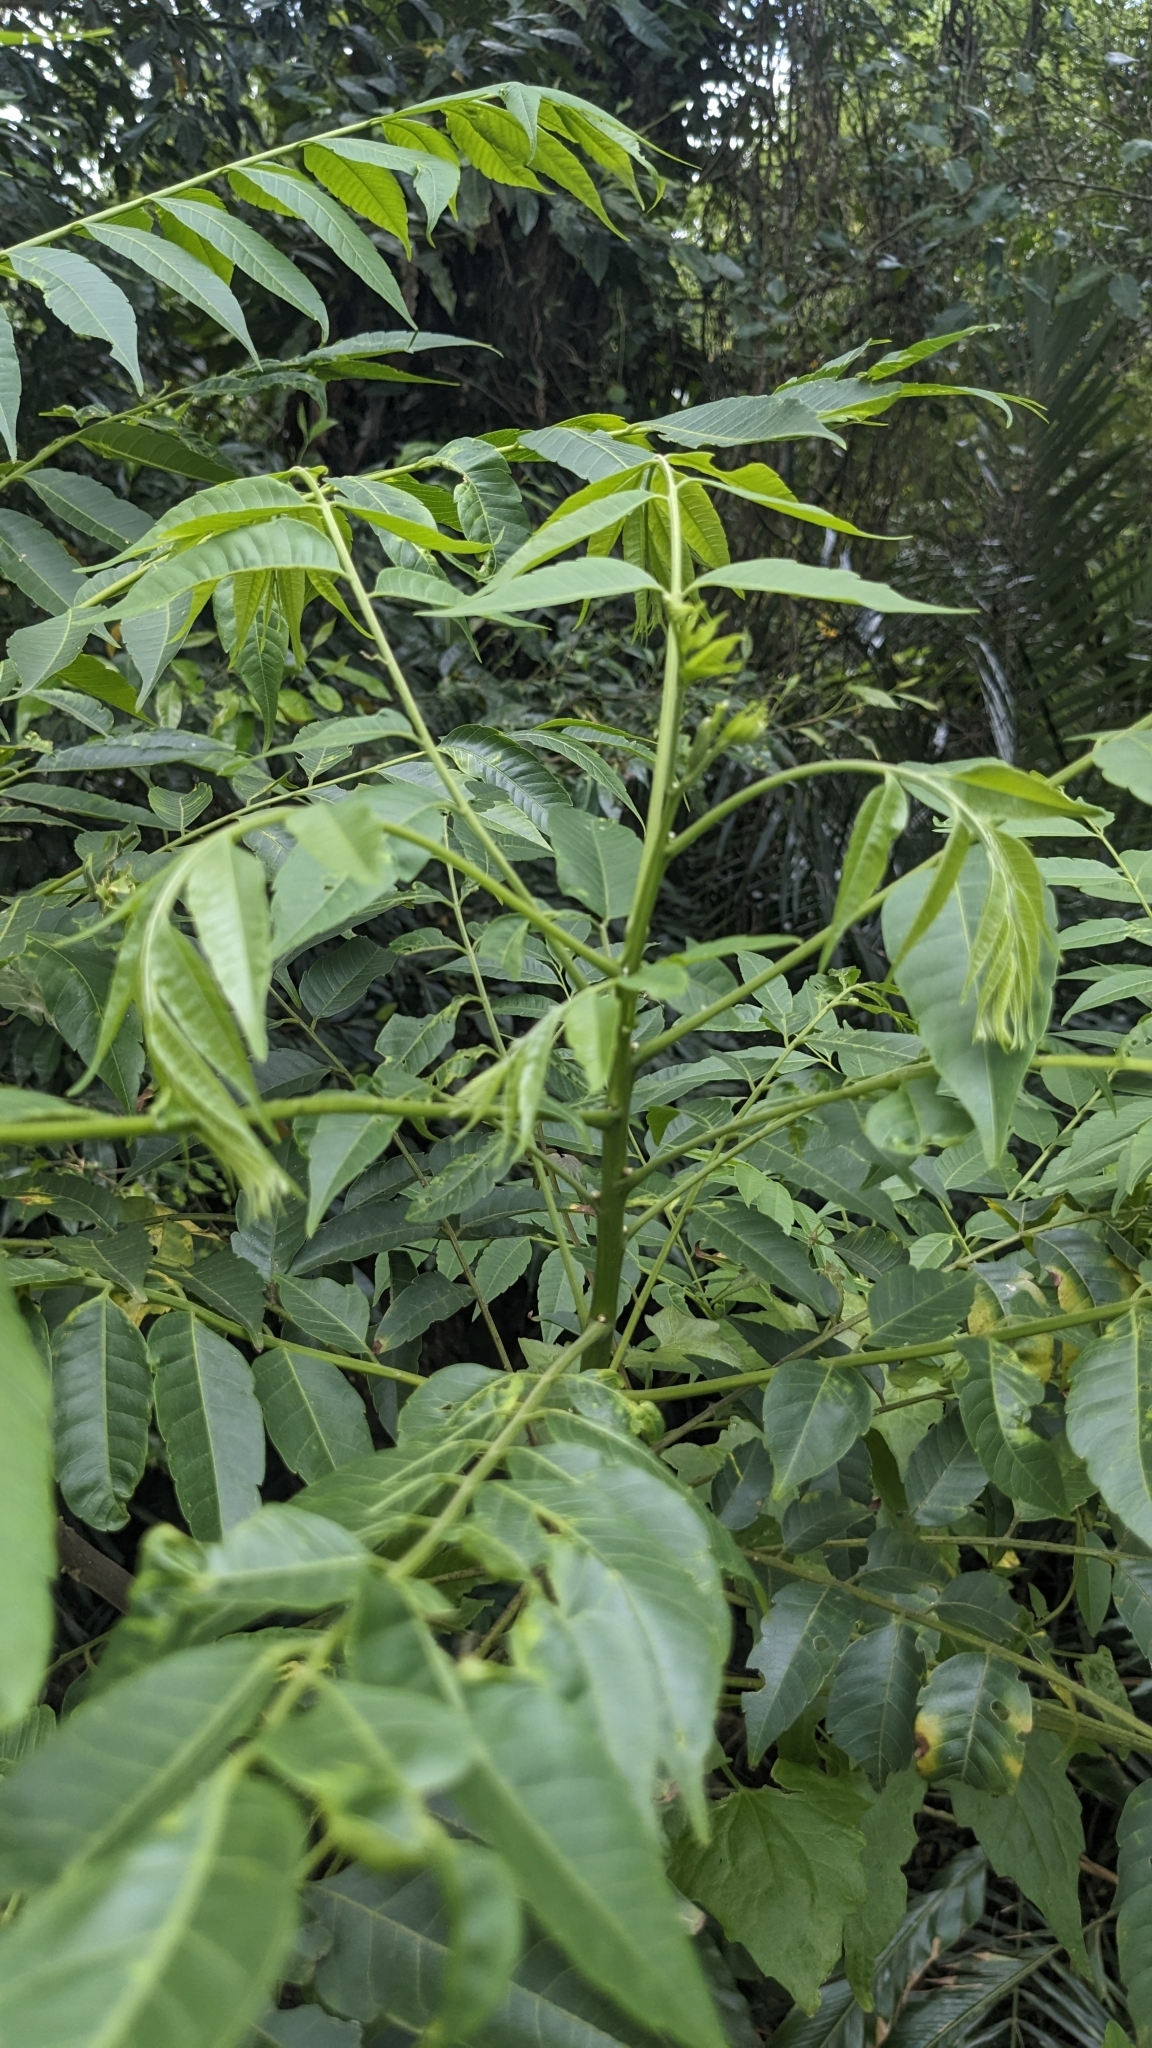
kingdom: Plantae
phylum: Tracheophyta
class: Magnoliopsida
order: Sapindales
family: Sapindaceae
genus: Eurycorymbus
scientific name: Eurycorymbus cavaleriei
